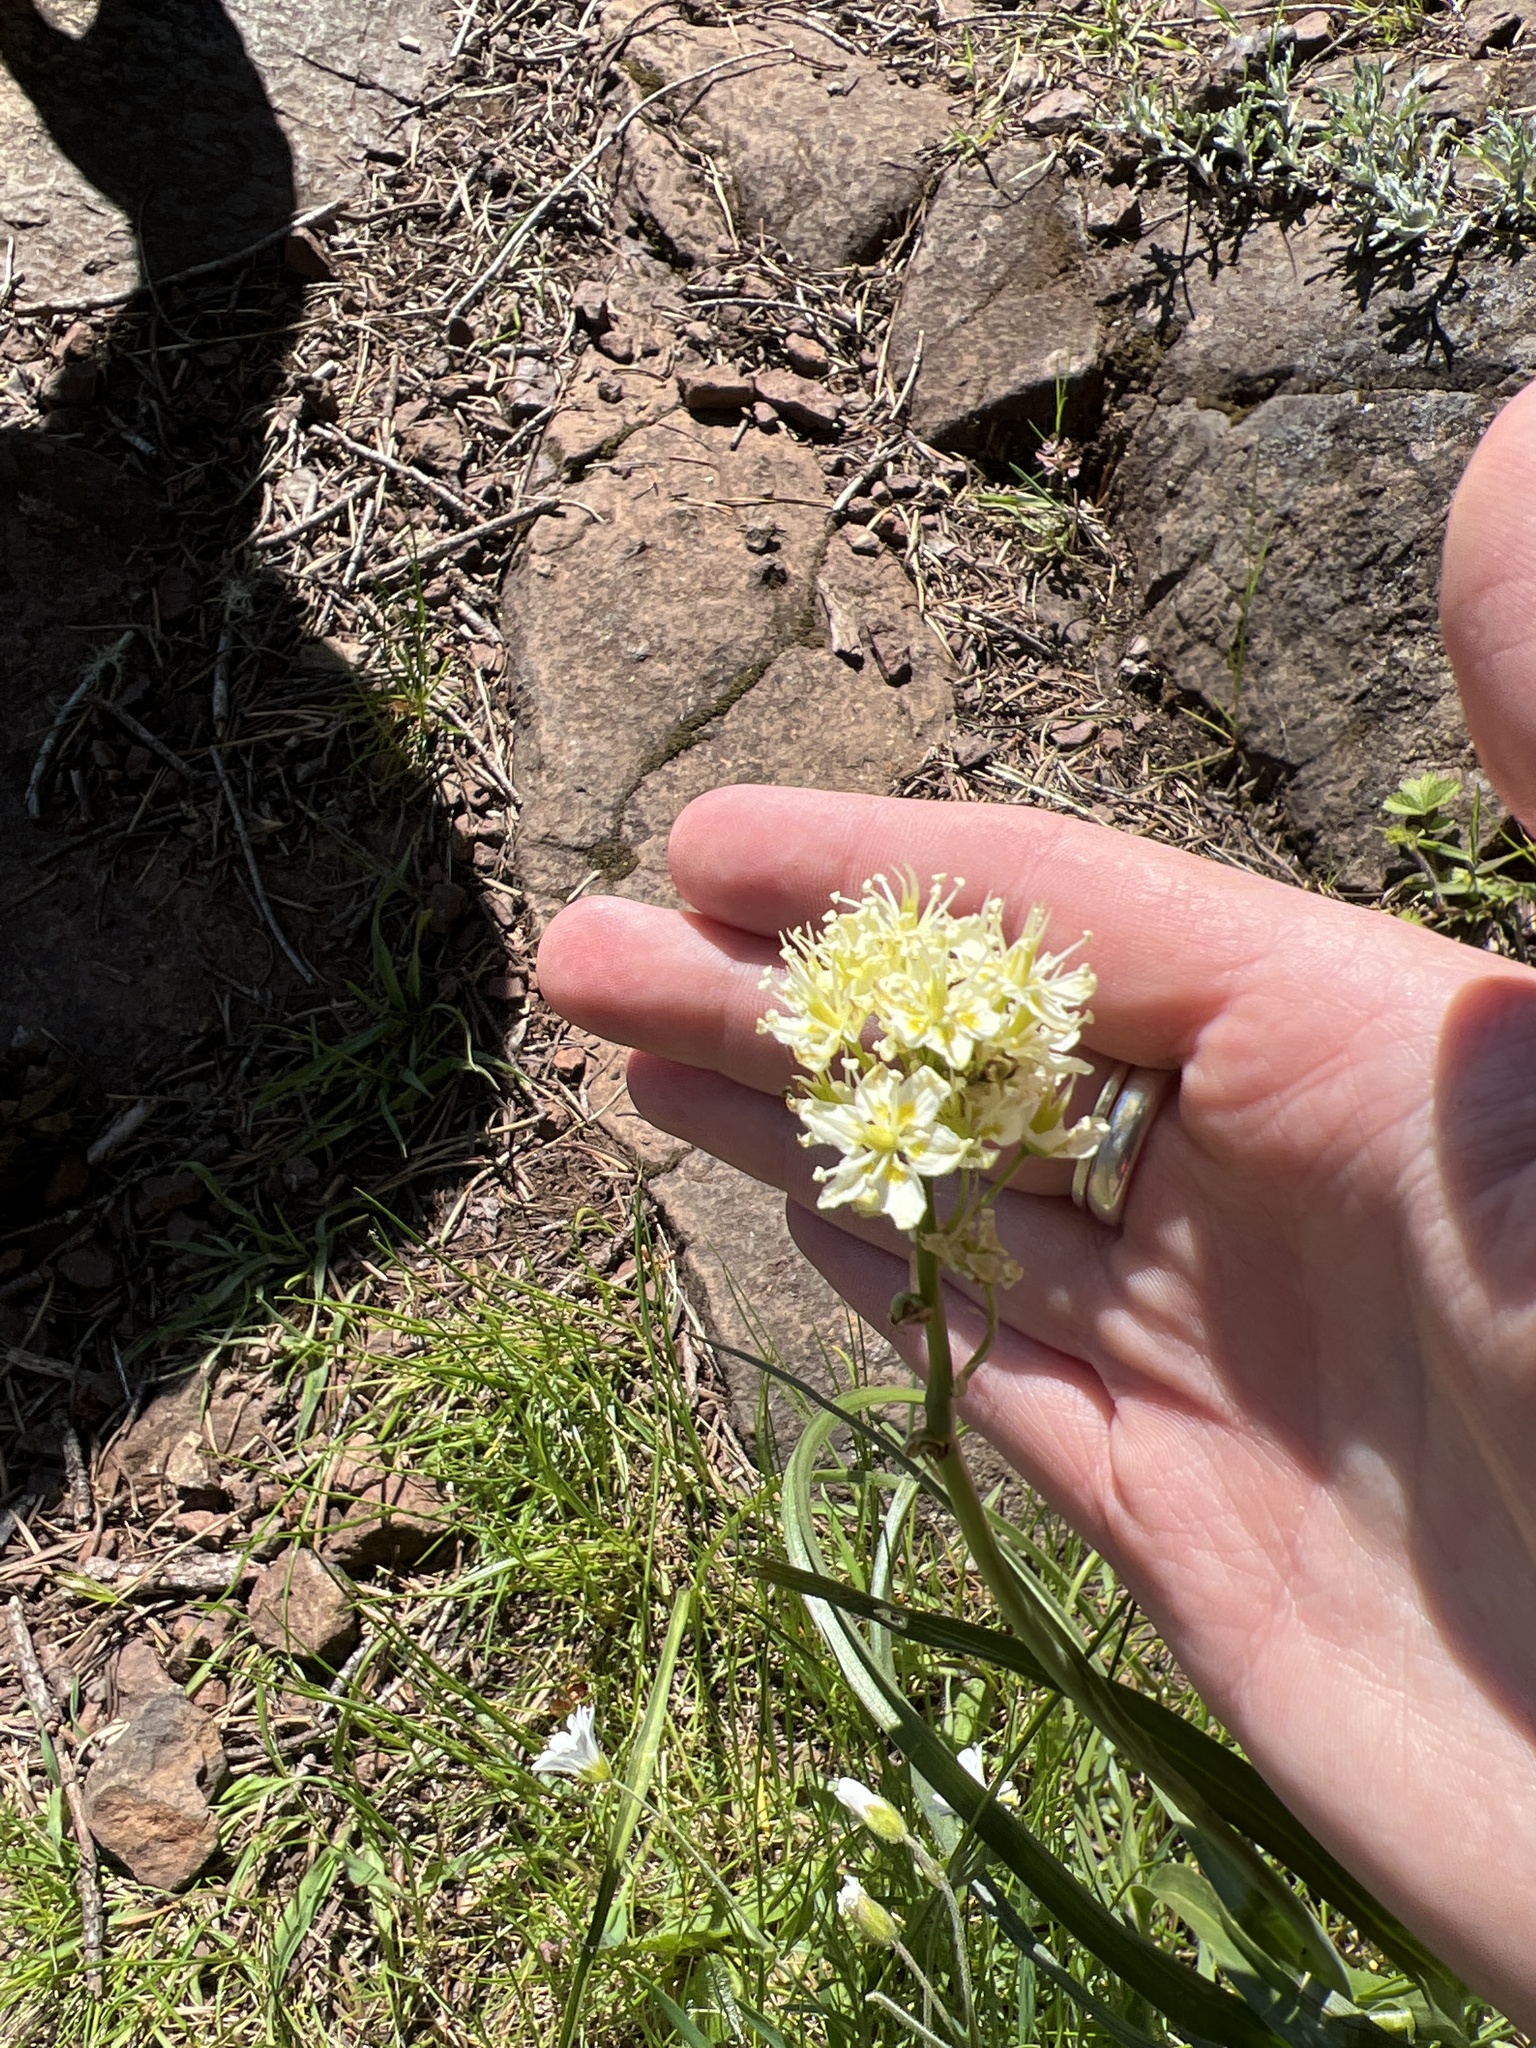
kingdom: Plantae
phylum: Tracheophyta
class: Liliopsida
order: Liliales
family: Melanthiaceae
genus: Toxicoscordion
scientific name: Toxicoscordion venenosum
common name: Meadow death camas
